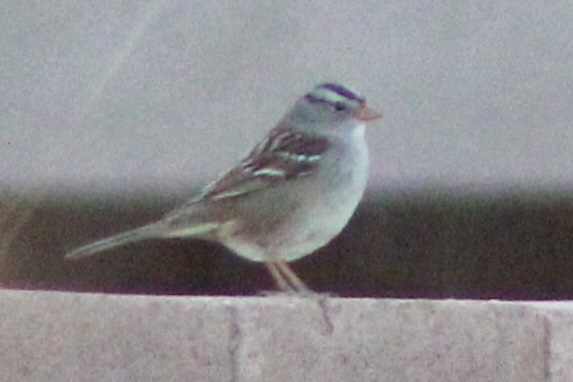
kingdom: Animalia
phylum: Chordata
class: Aves
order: Passeriformes
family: Passerellidae
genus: Zonotrichia
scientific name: Zonotrichia leucophrys
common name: White-crowned sparrow
